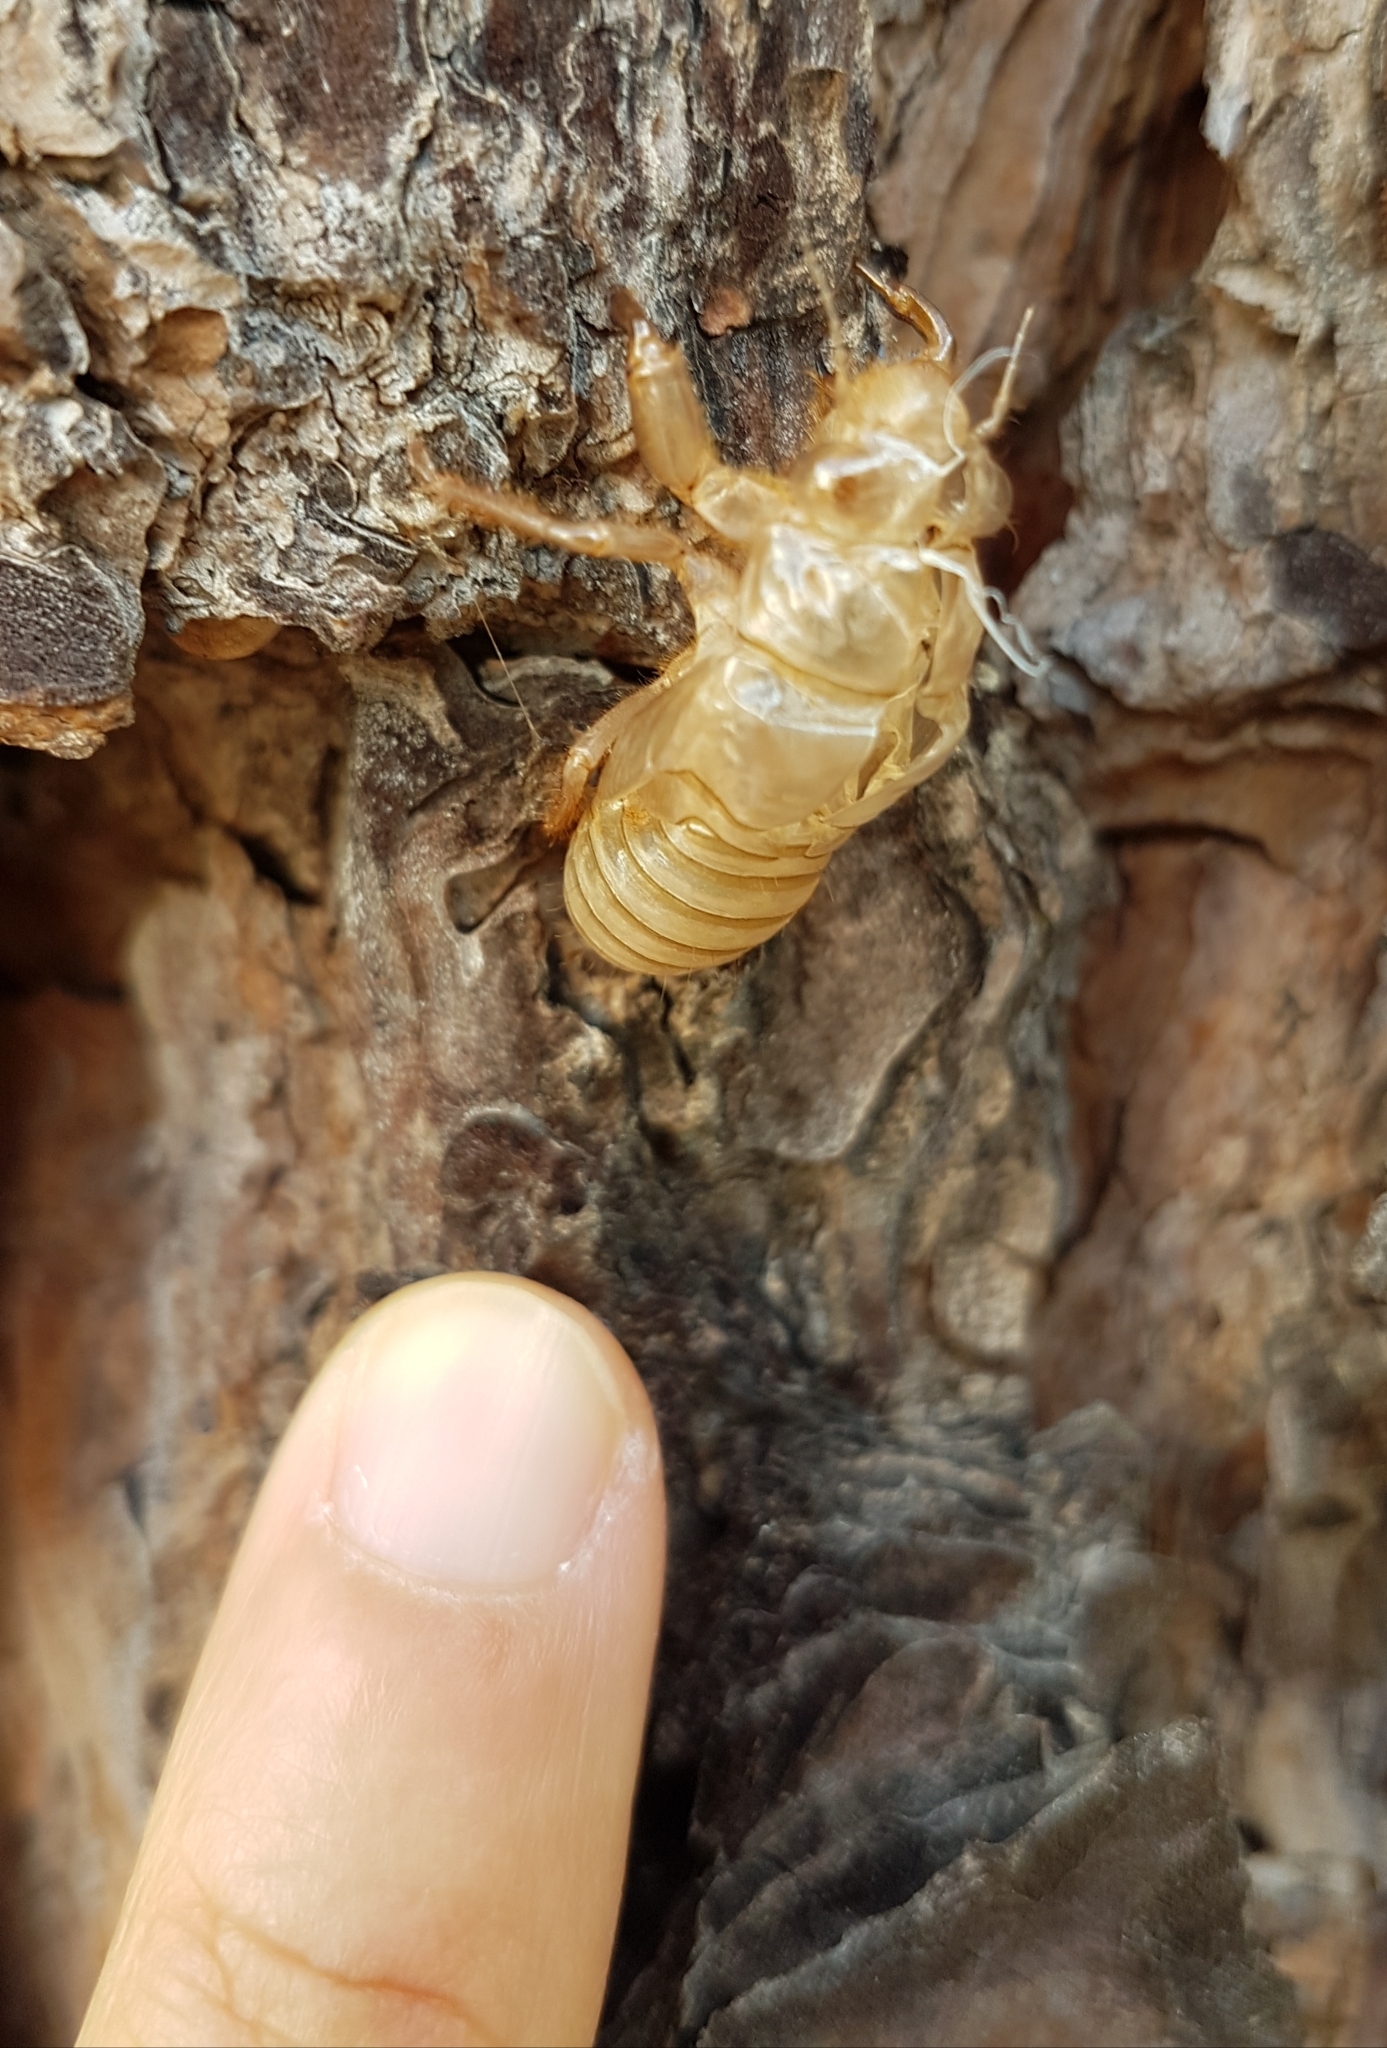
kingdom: Animalia
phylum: Arthropoda
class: Insecta
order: Hemiptera
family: Cicadidae
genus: Cicada
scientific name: Cicada orni
